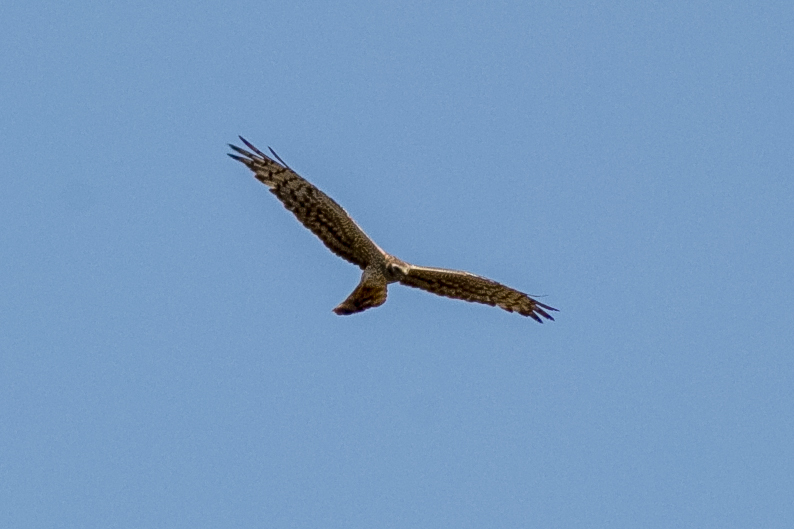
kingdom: Animalia
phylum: Chordata
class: Aves
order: Accipitriformes
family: Accipitridae
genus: Circus
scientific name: Circus pygargus
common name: Montagu's harrier
